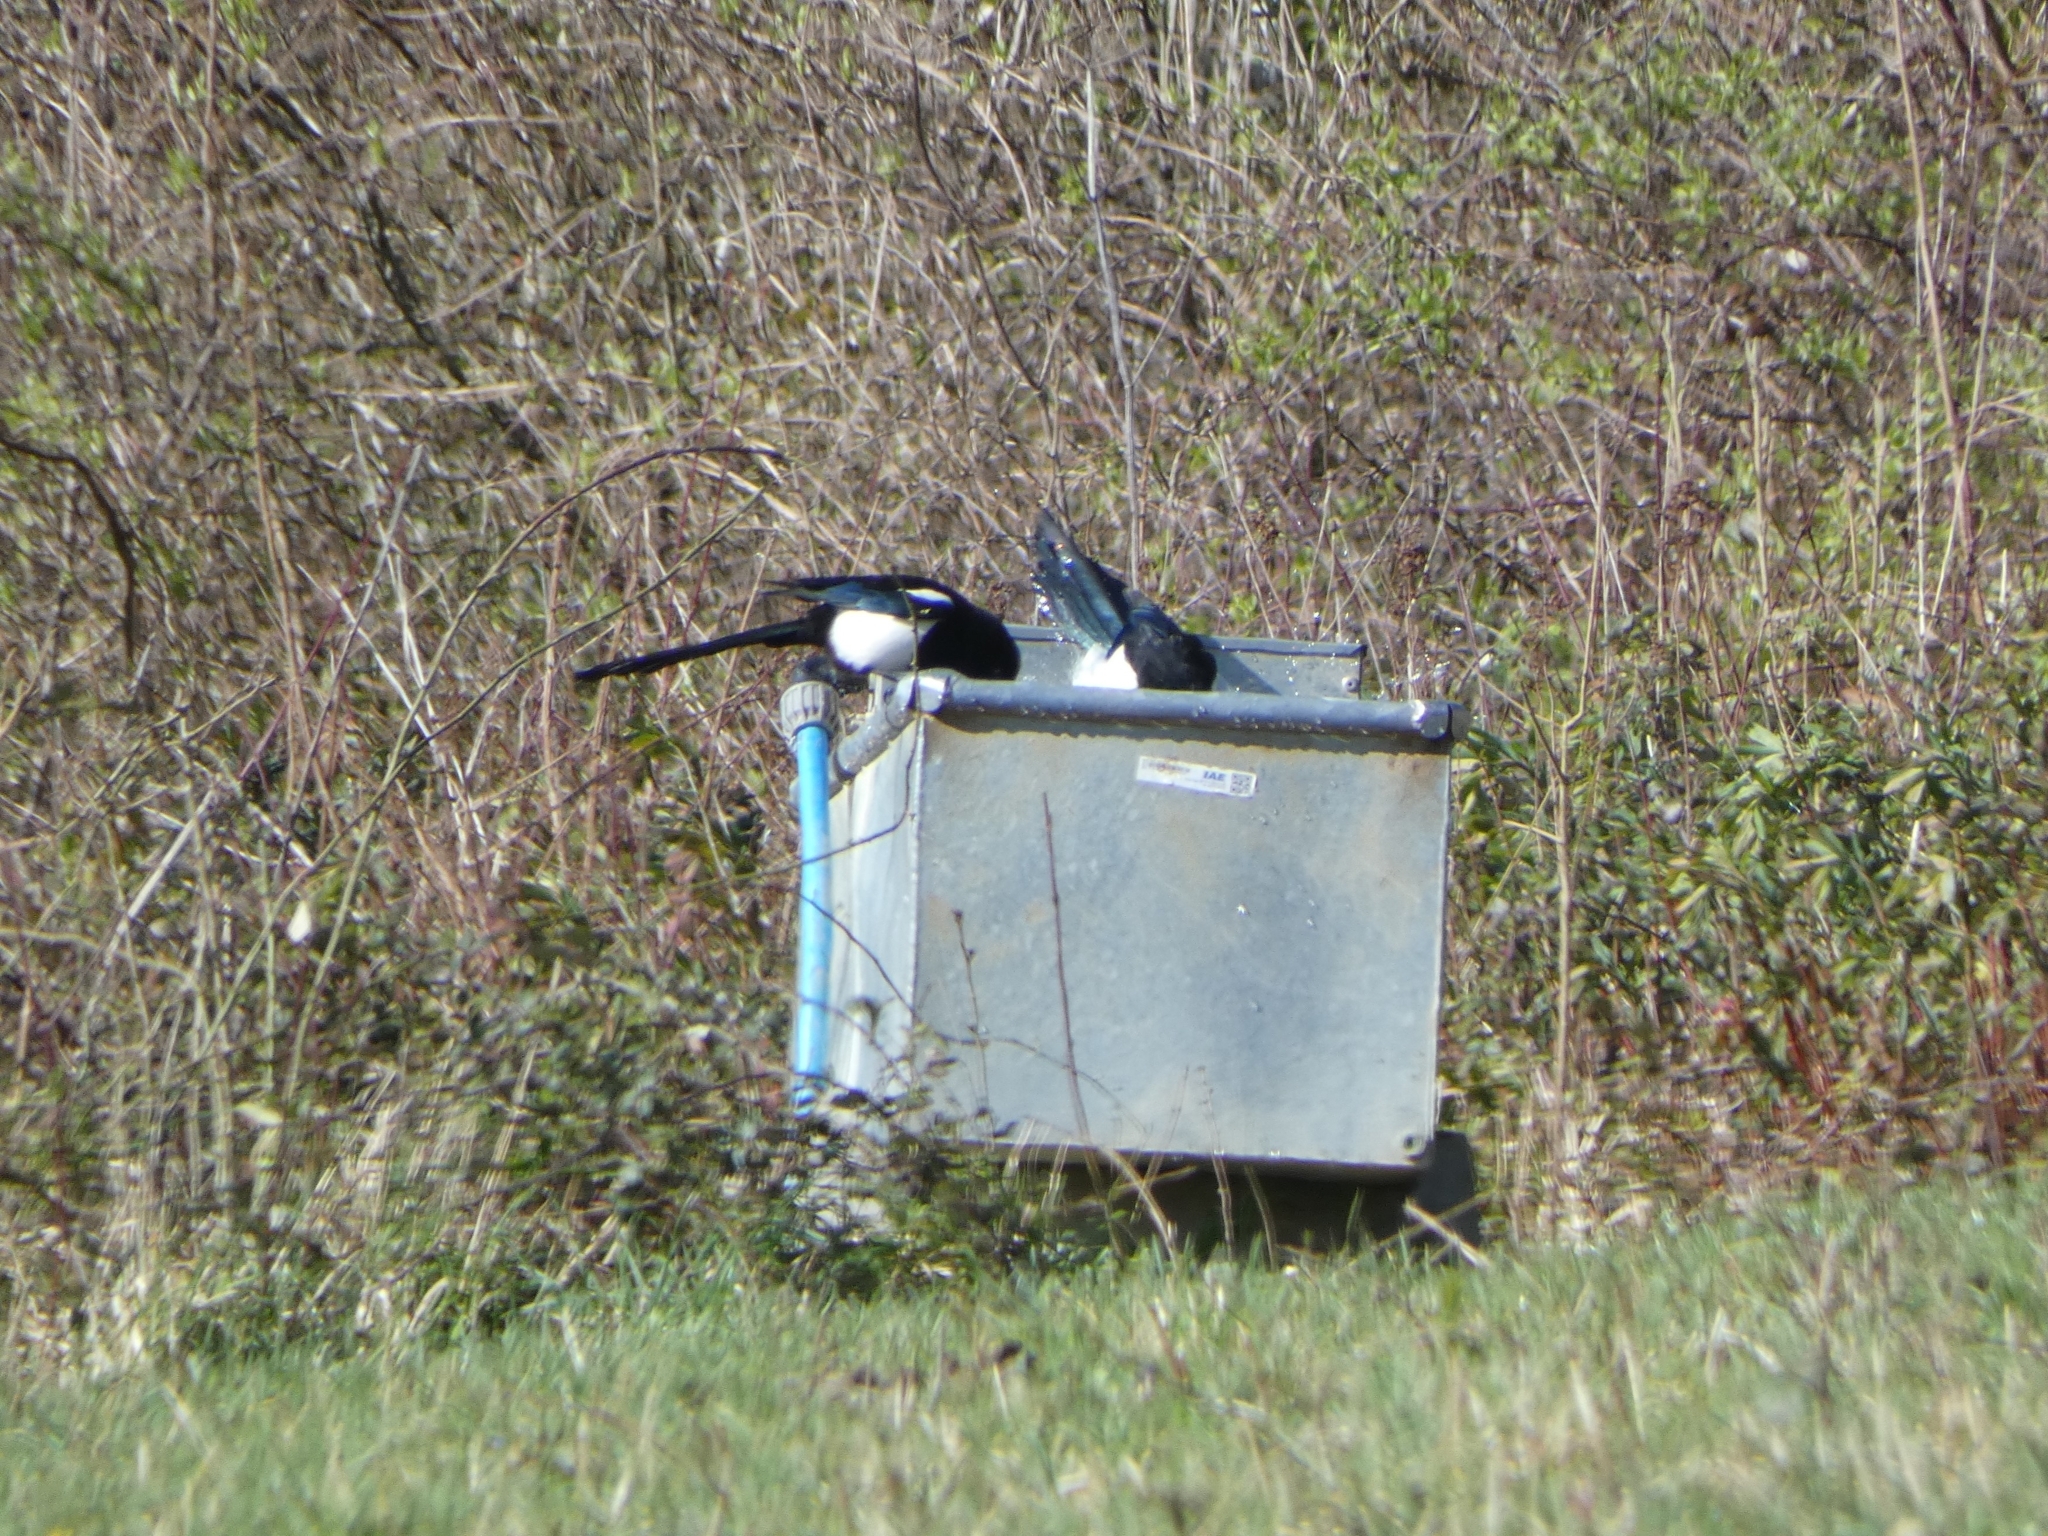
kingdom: Animalia
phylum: Chordata
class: Aves
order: Passeriformes
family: Corvidae
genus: Pica
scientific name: Pica pica
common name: Eurasian magpie
